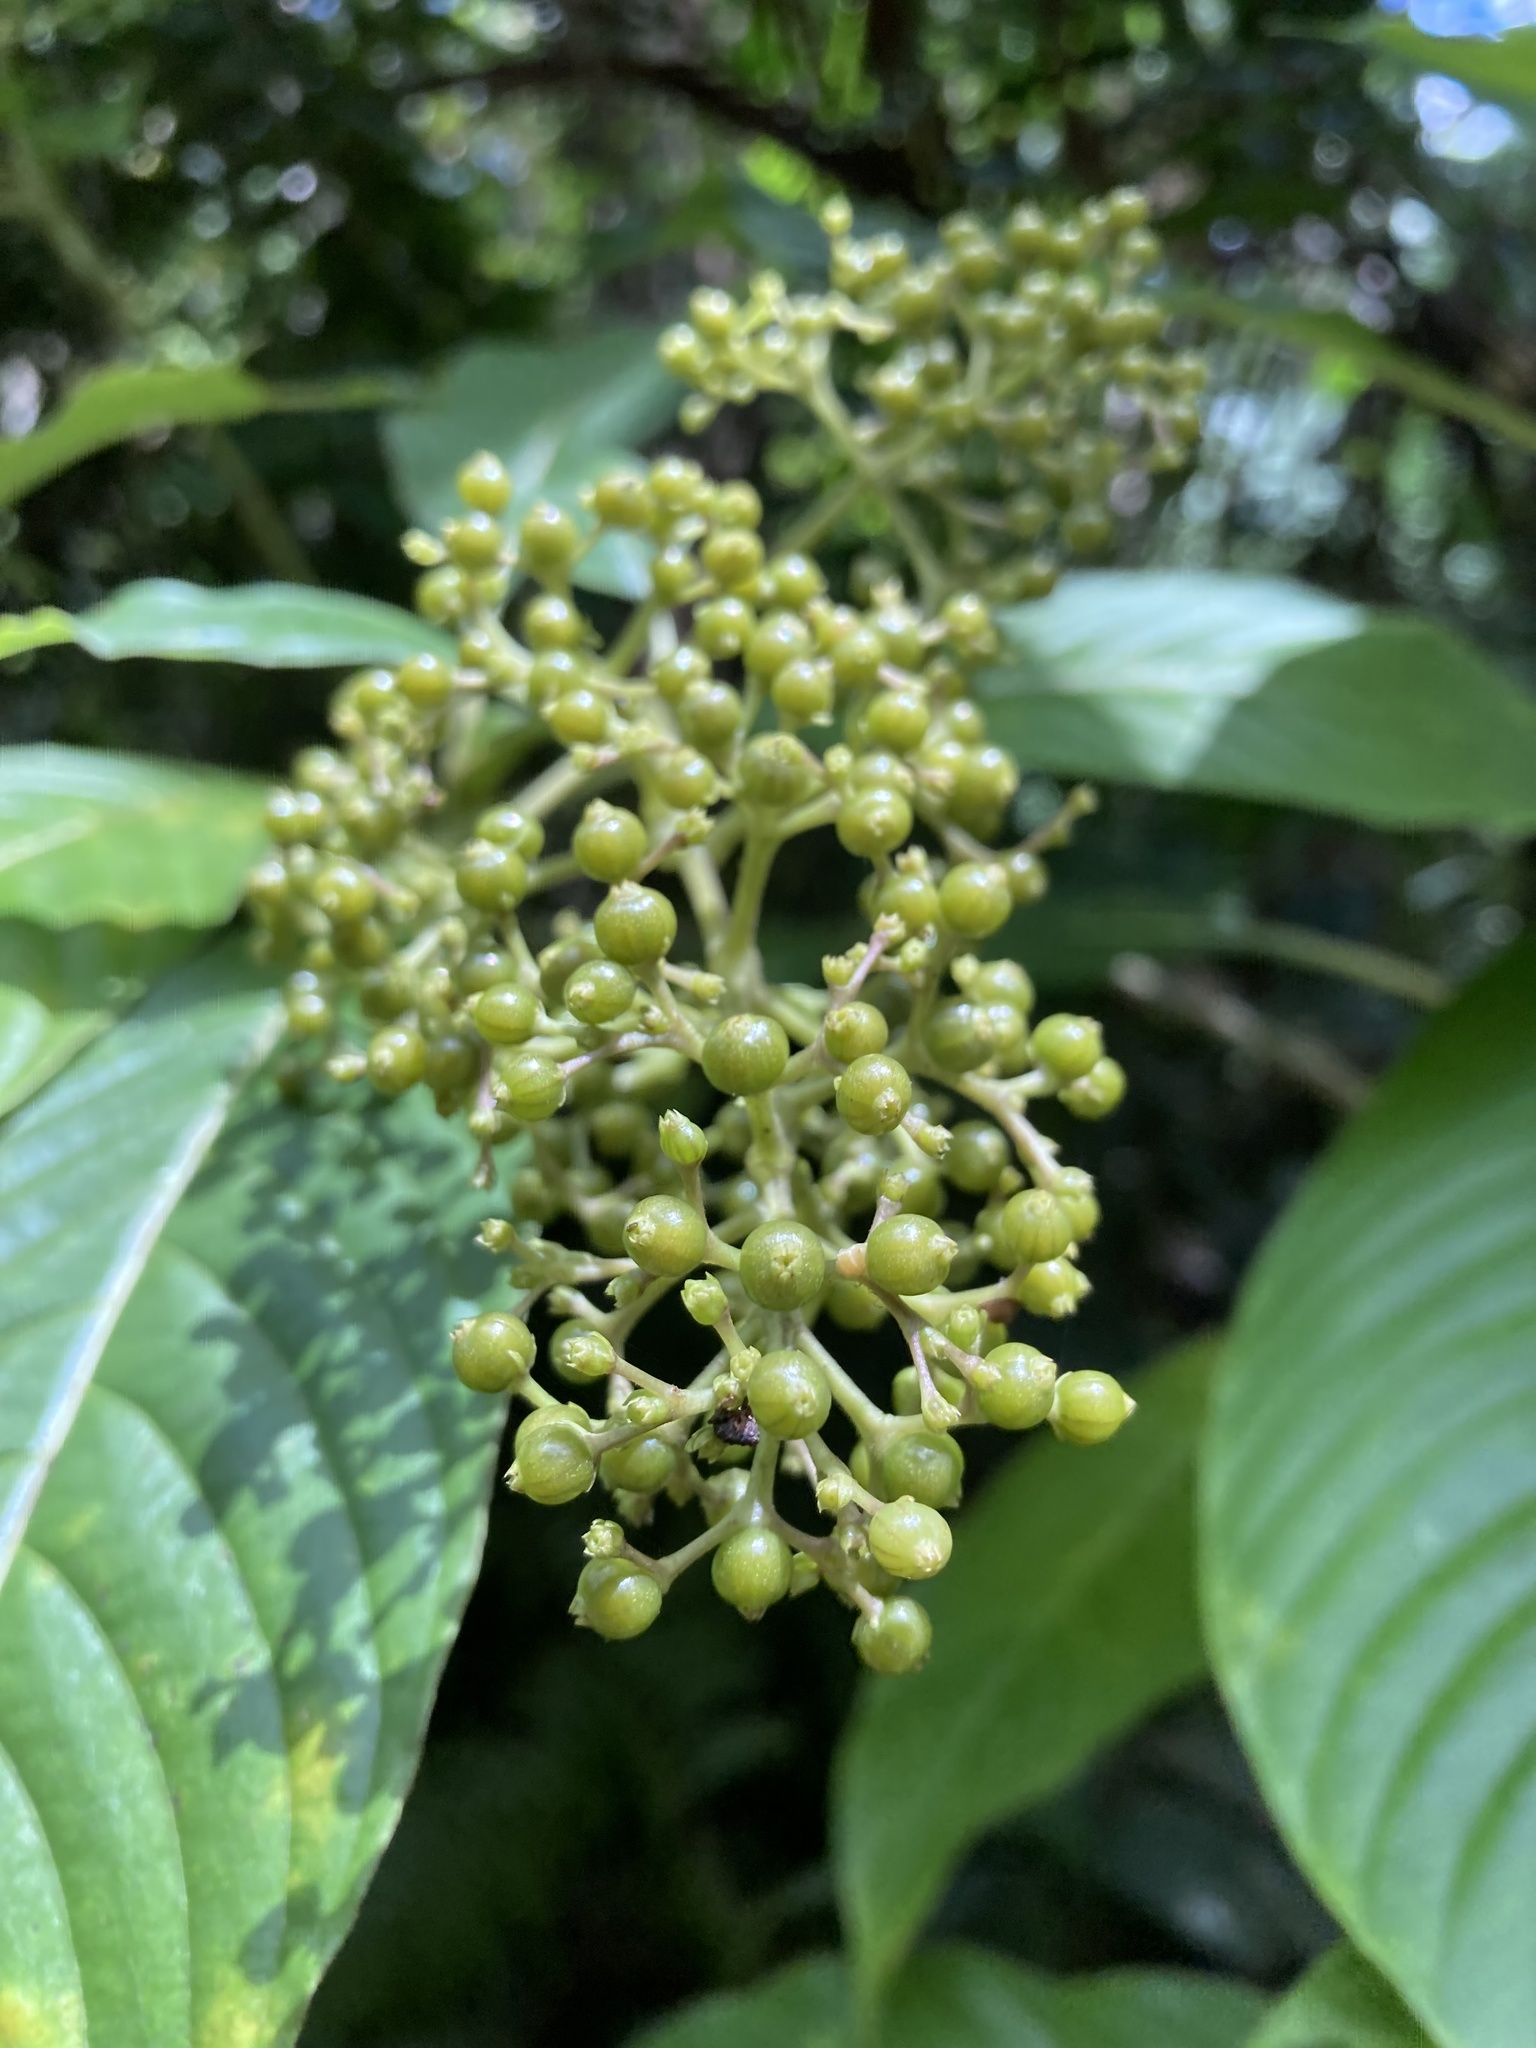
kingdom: Plantae
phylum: Tracheophyta
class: Magnoliopsida
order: Gentianales
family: Rubiaceae
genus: Palicourea
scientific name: Palicourea berteroana
